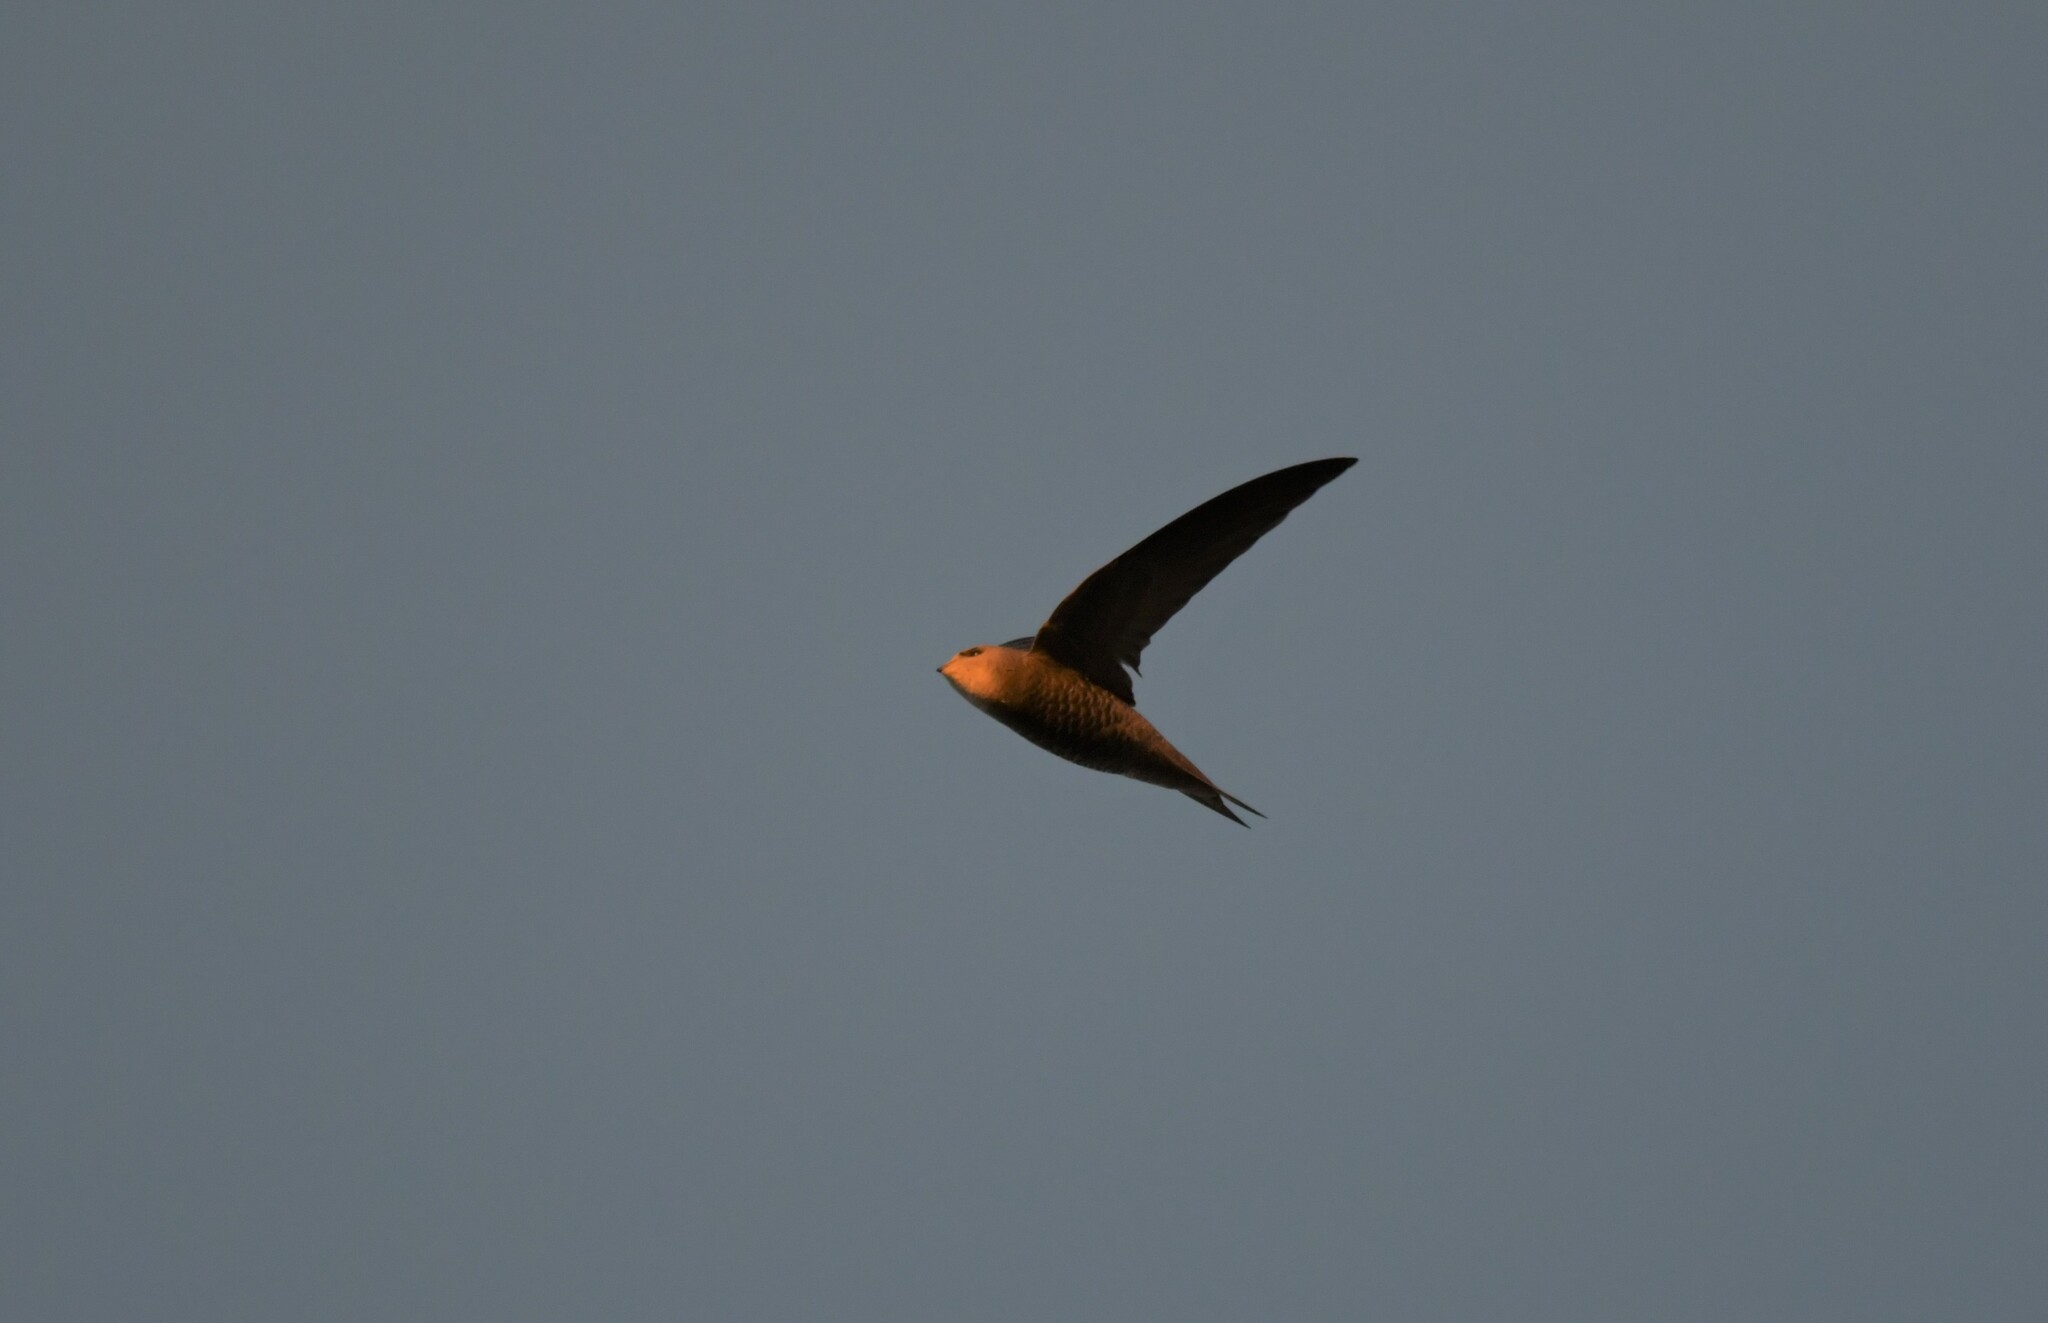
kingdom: Animalia
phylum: Chordata
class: Aves
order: Apodiformes
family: Apodidae
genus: Apus
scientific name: Apus pallidus
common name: Pallid swift
